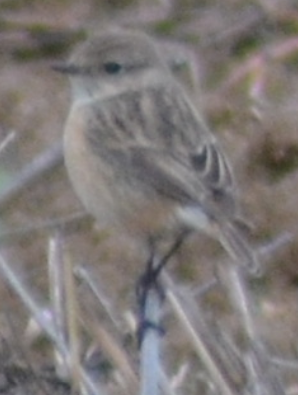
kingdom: Animalia
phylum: Chordata
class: Aves
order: Passeriformes
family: Muscicapidae
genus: Saxicola
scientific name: Saxicola rubicola
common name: European stonechat
